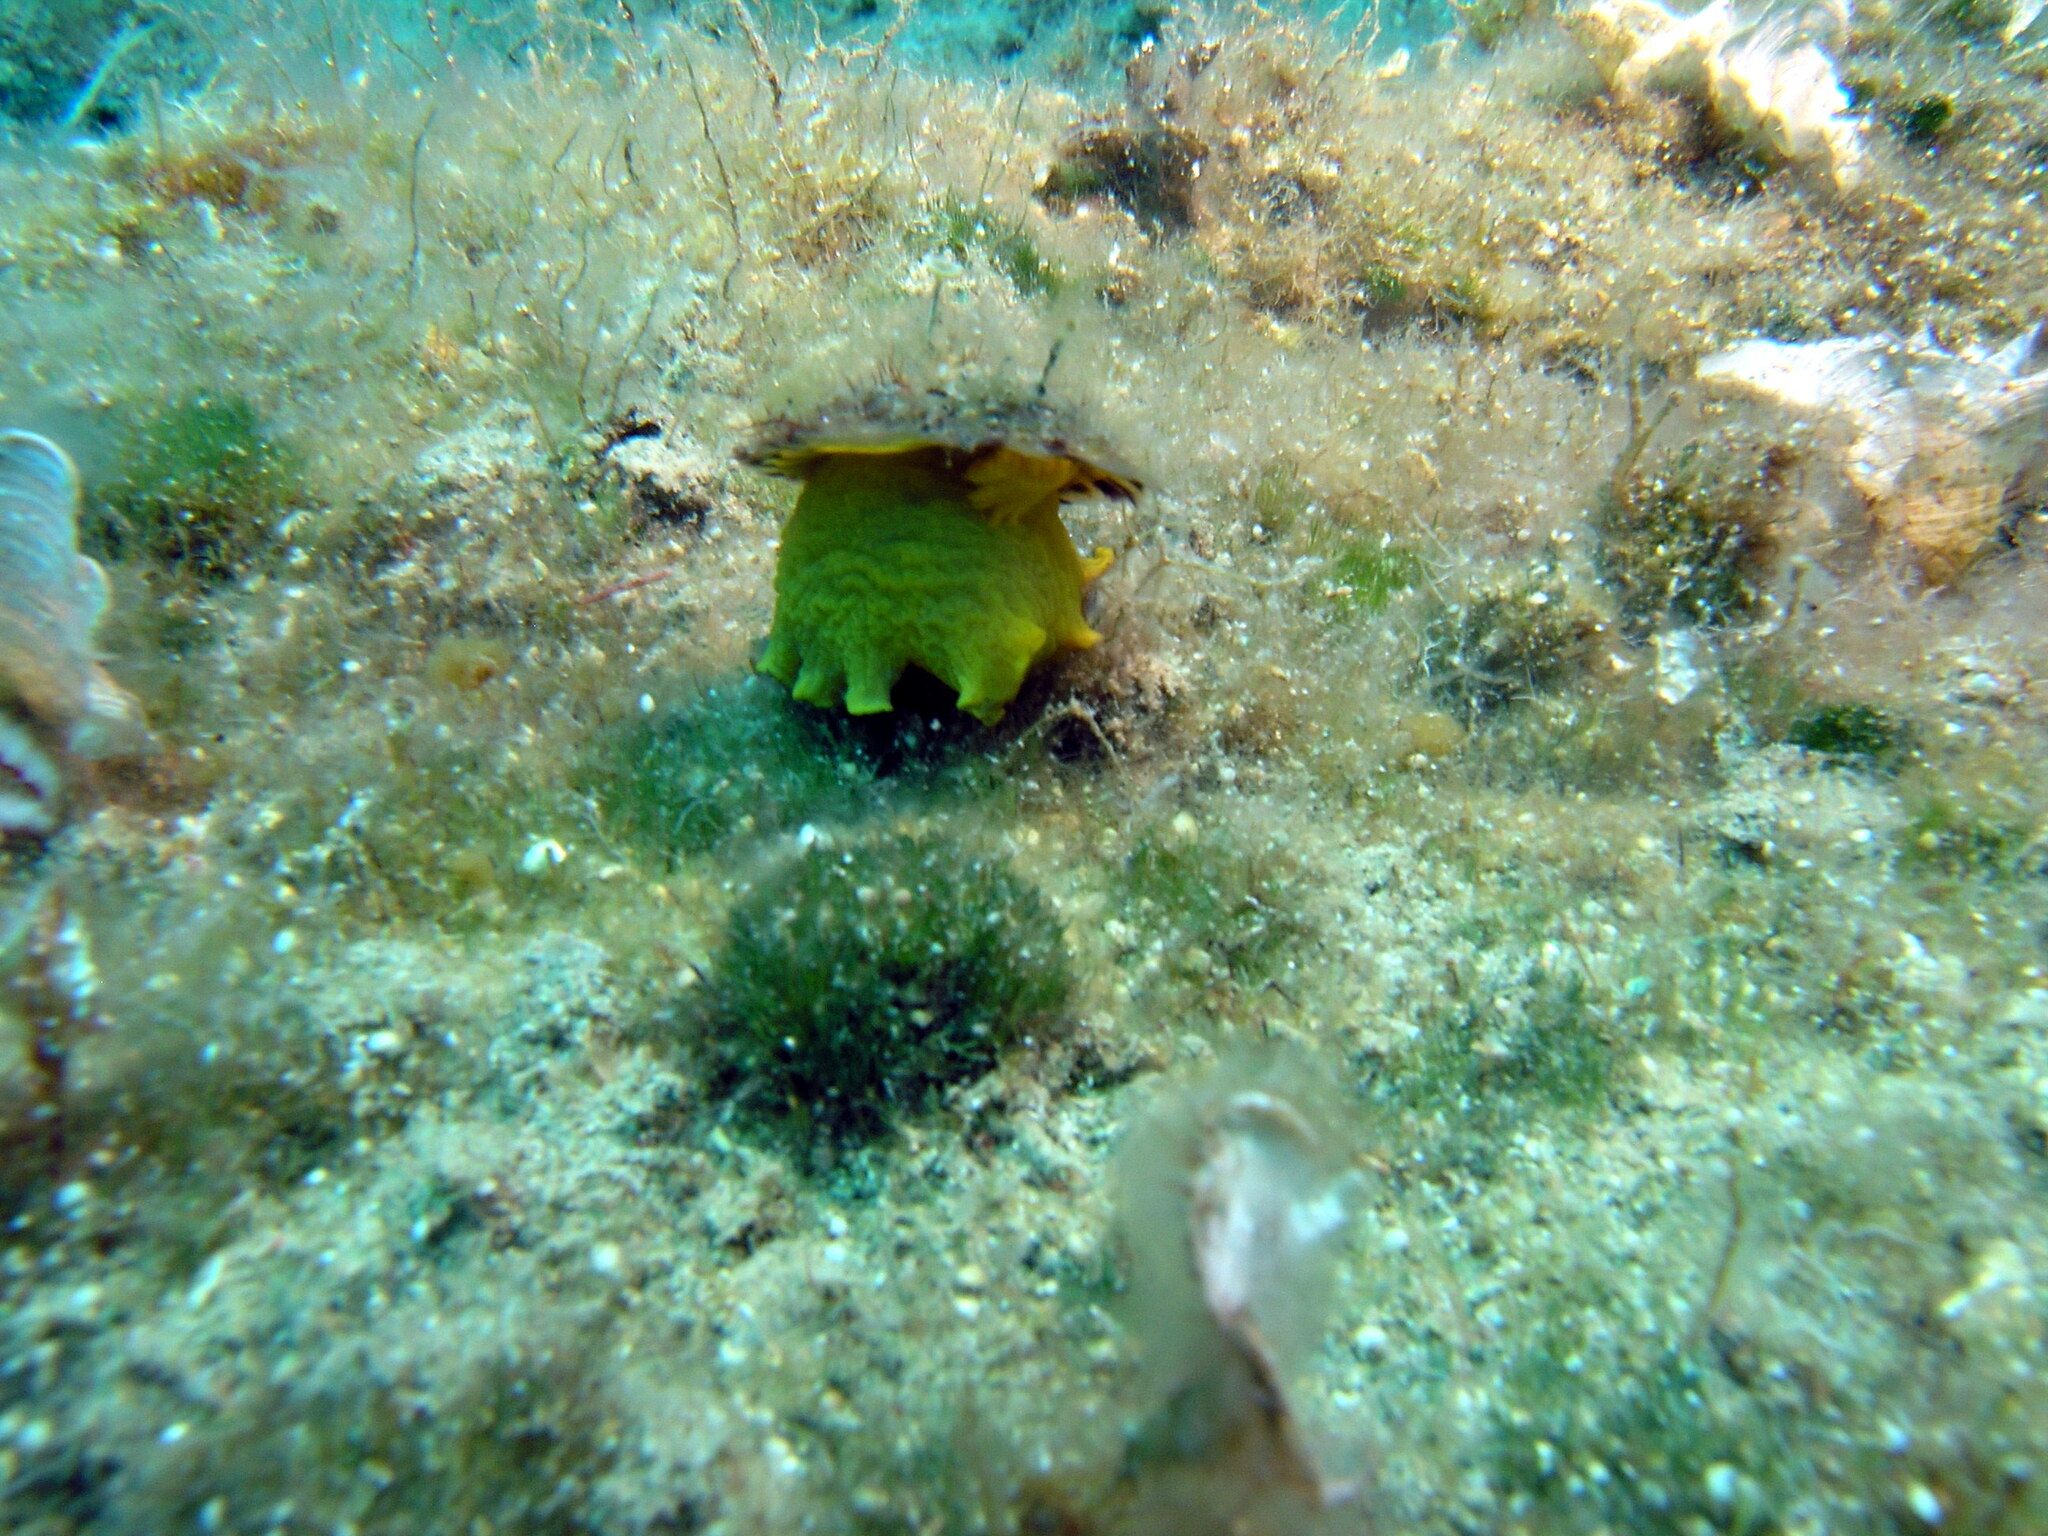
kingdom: Animalia
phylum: Mollusca
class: Gastropoda
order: Umbraculida
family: Tylodinidae
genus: Tylodina
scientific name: Tylodina perversa
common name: Yellow tylodina
